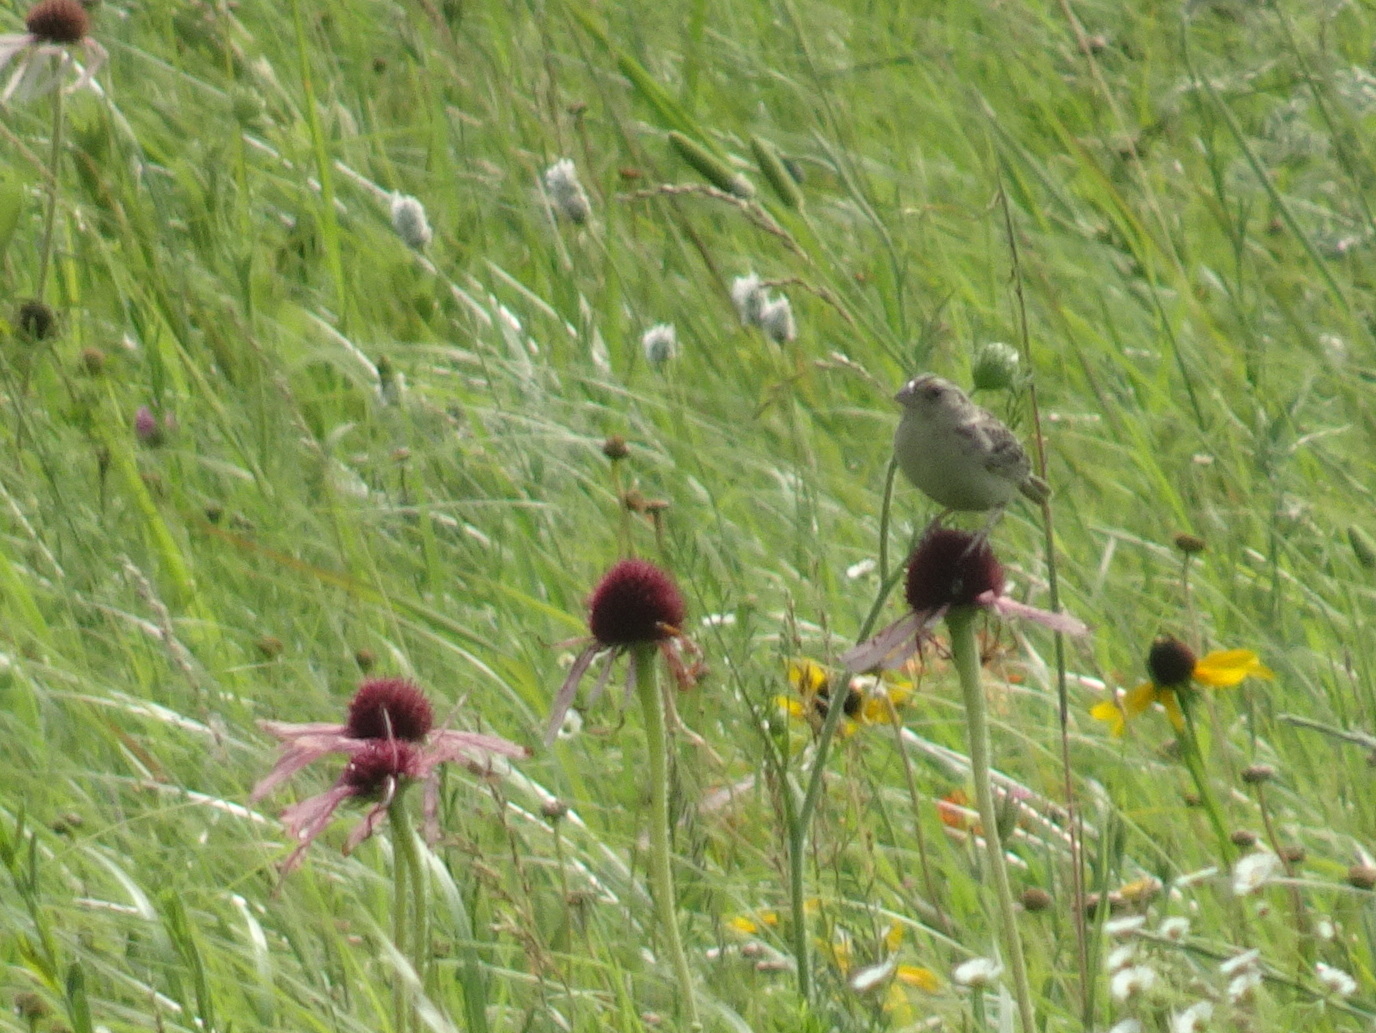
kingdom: Animalia
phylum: Chordata
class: Aves
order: Passeriformes
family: Passerellidae
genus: Ammodramus
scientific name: Ammodramus savannarum
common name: Grasshopper sparrow
